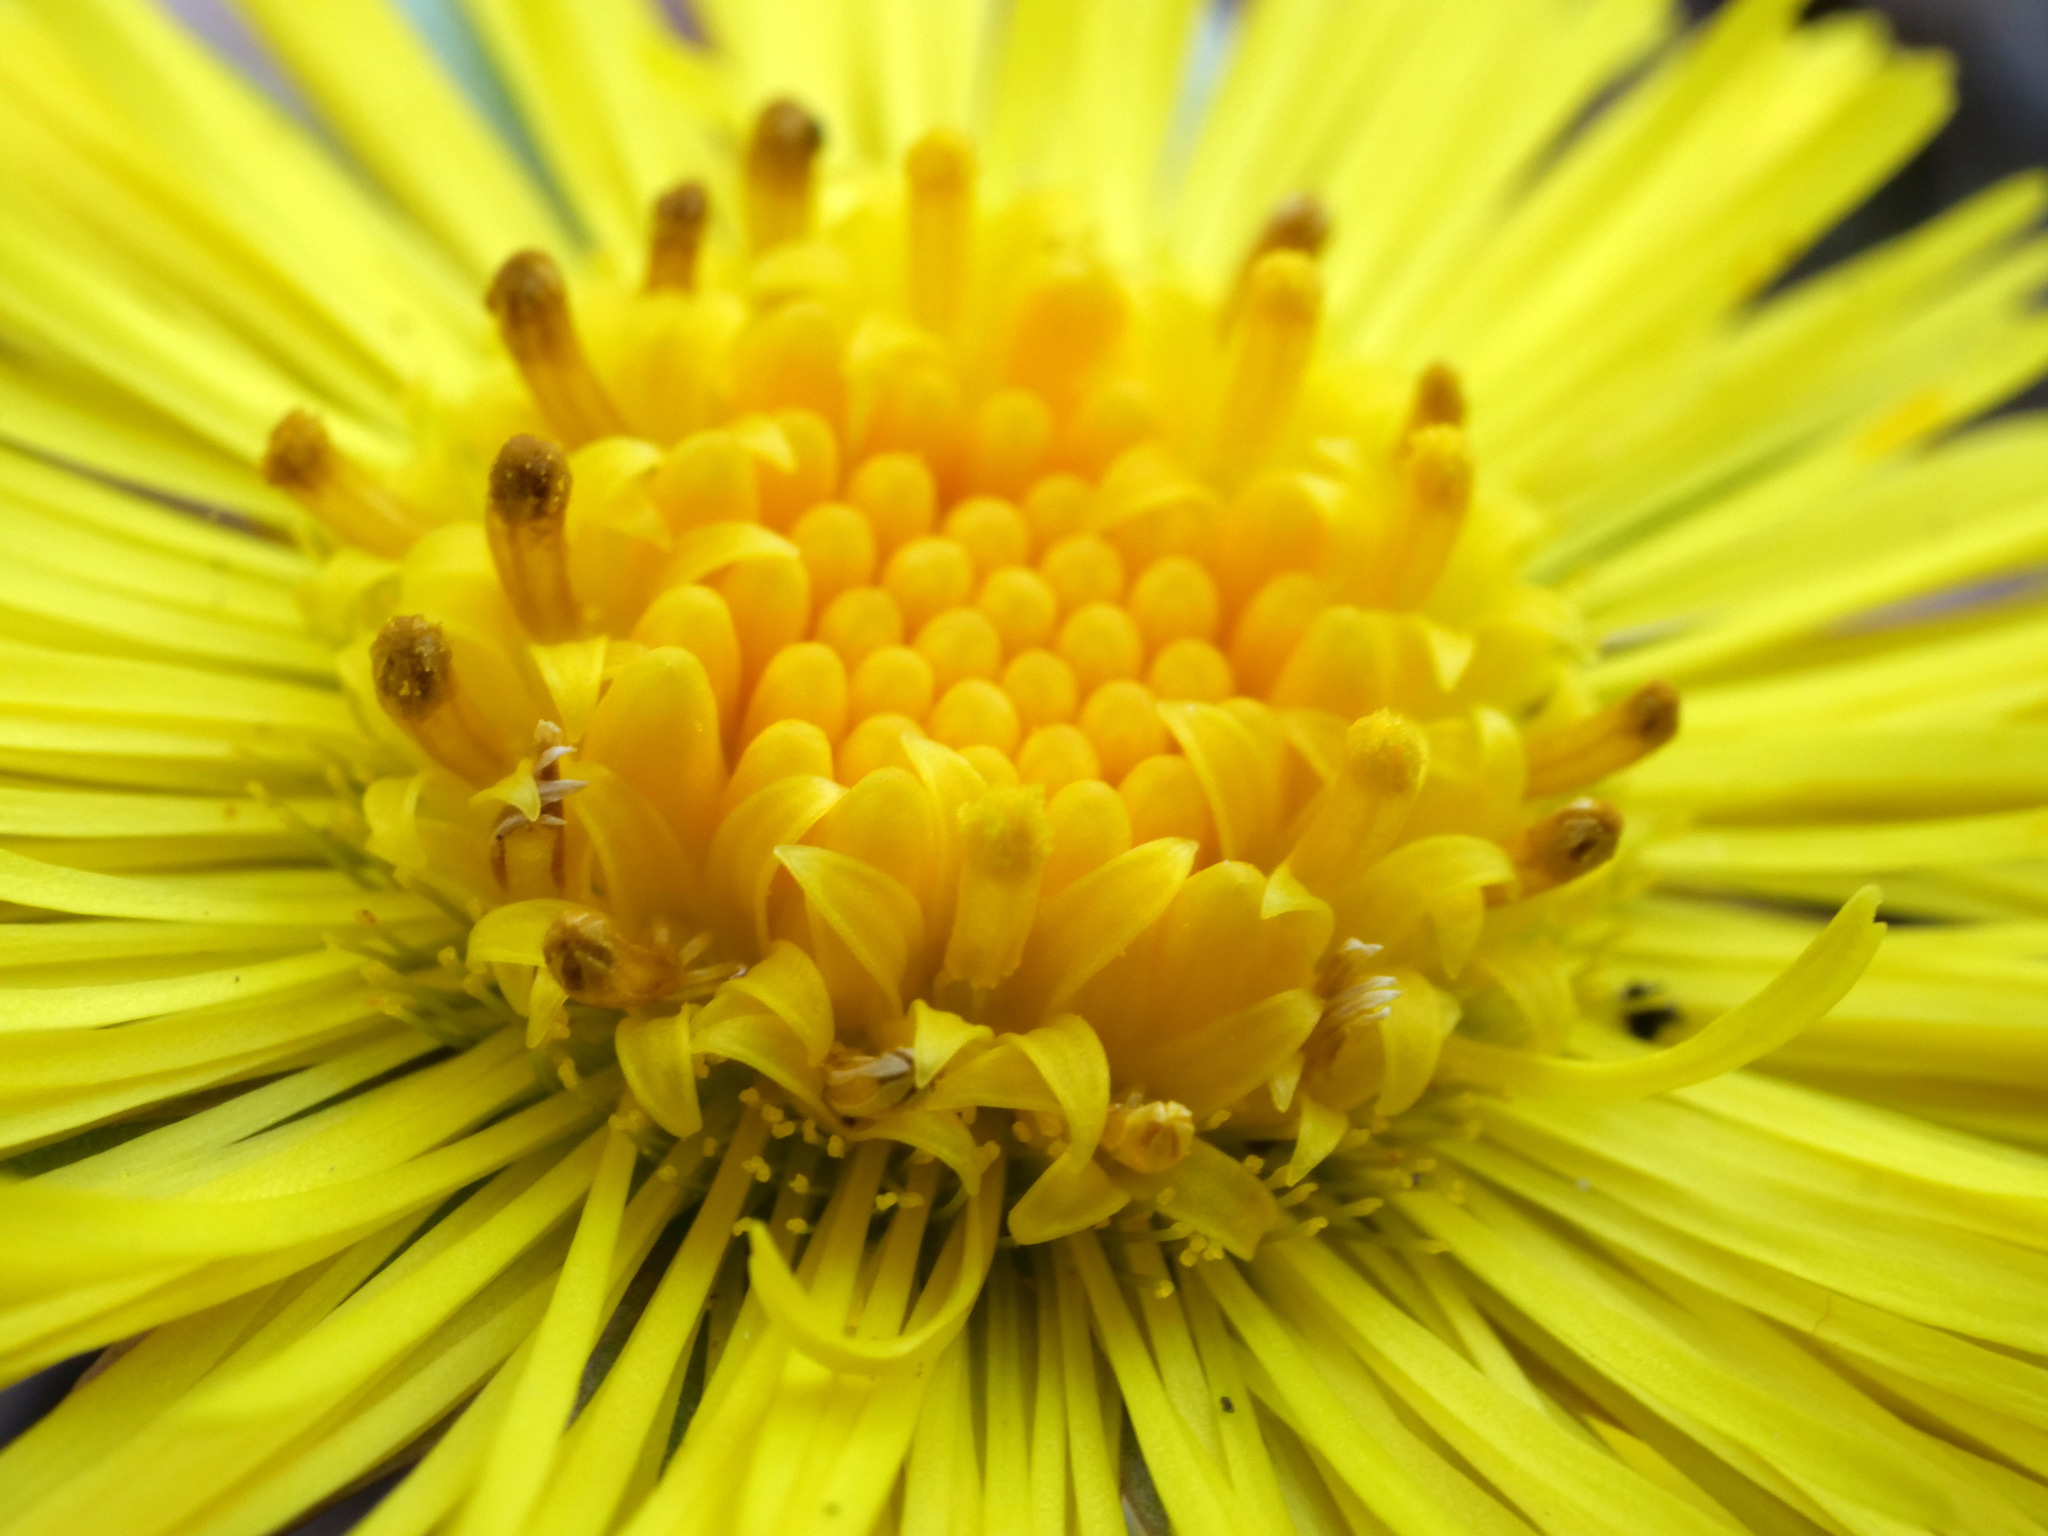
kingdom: Plantae
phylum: Tracheophyta
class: Magnoliopsida
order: Asterales
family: Asteraceae
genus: Tussilago
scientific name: Tussilago farfara
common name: Coltsfoot
